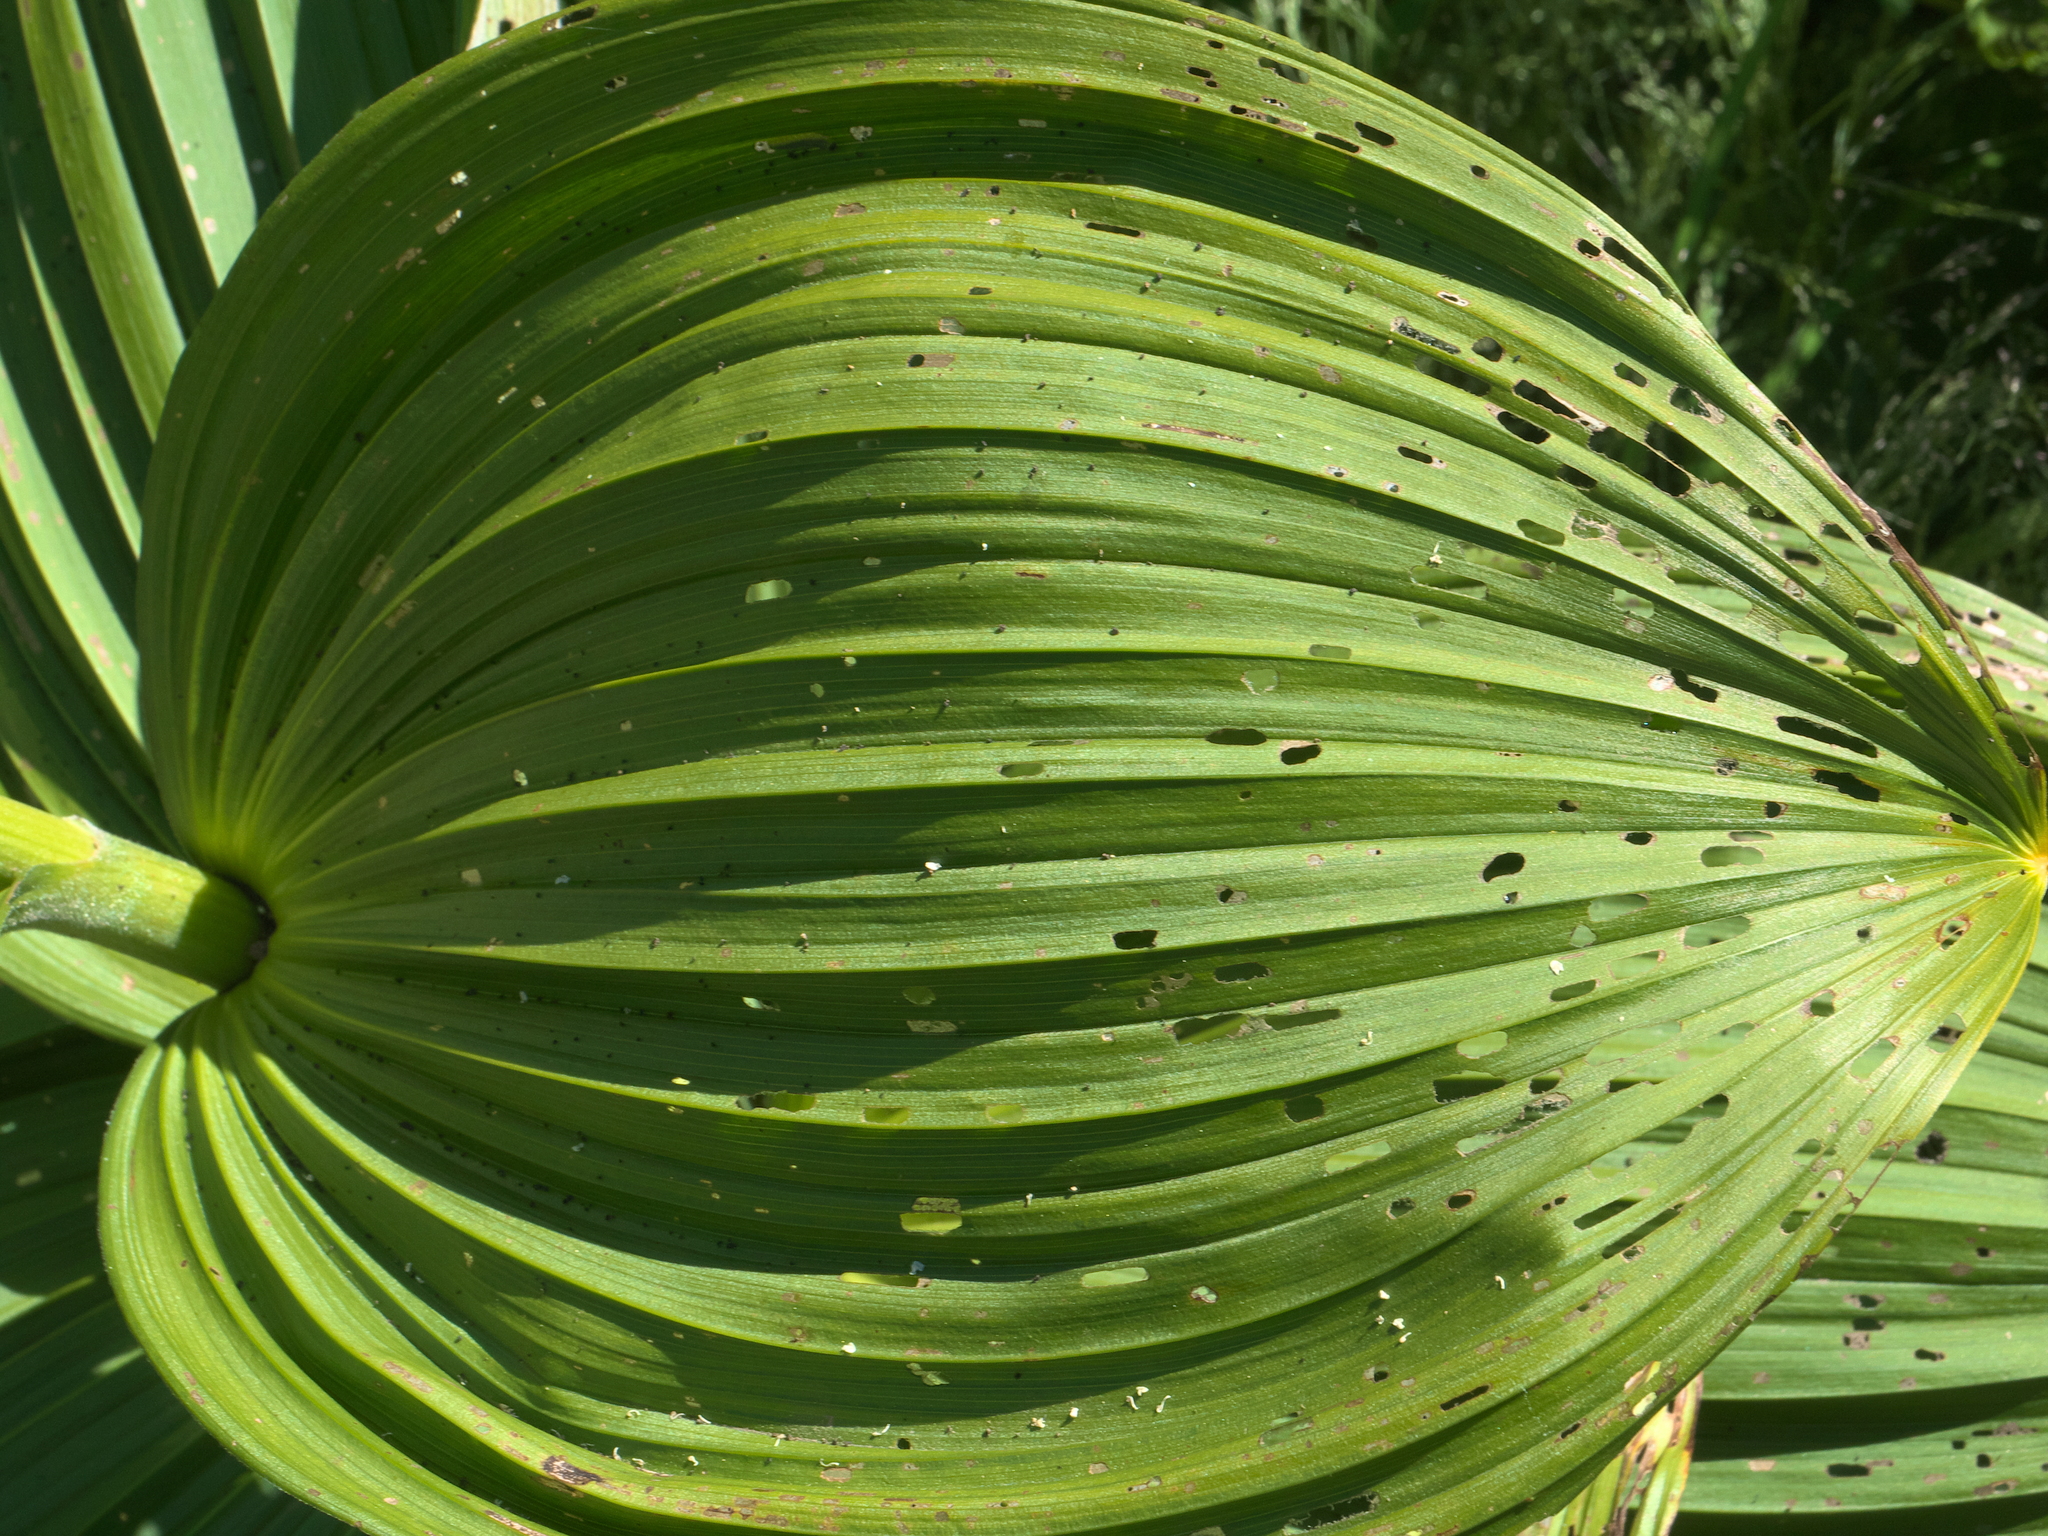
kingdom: Plantae
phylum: Tracheophyta
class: Liliopsida
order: Liliales
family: Melanthiaceae
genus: Veratrum
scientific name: Veratrum viride
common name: American false hellebore
